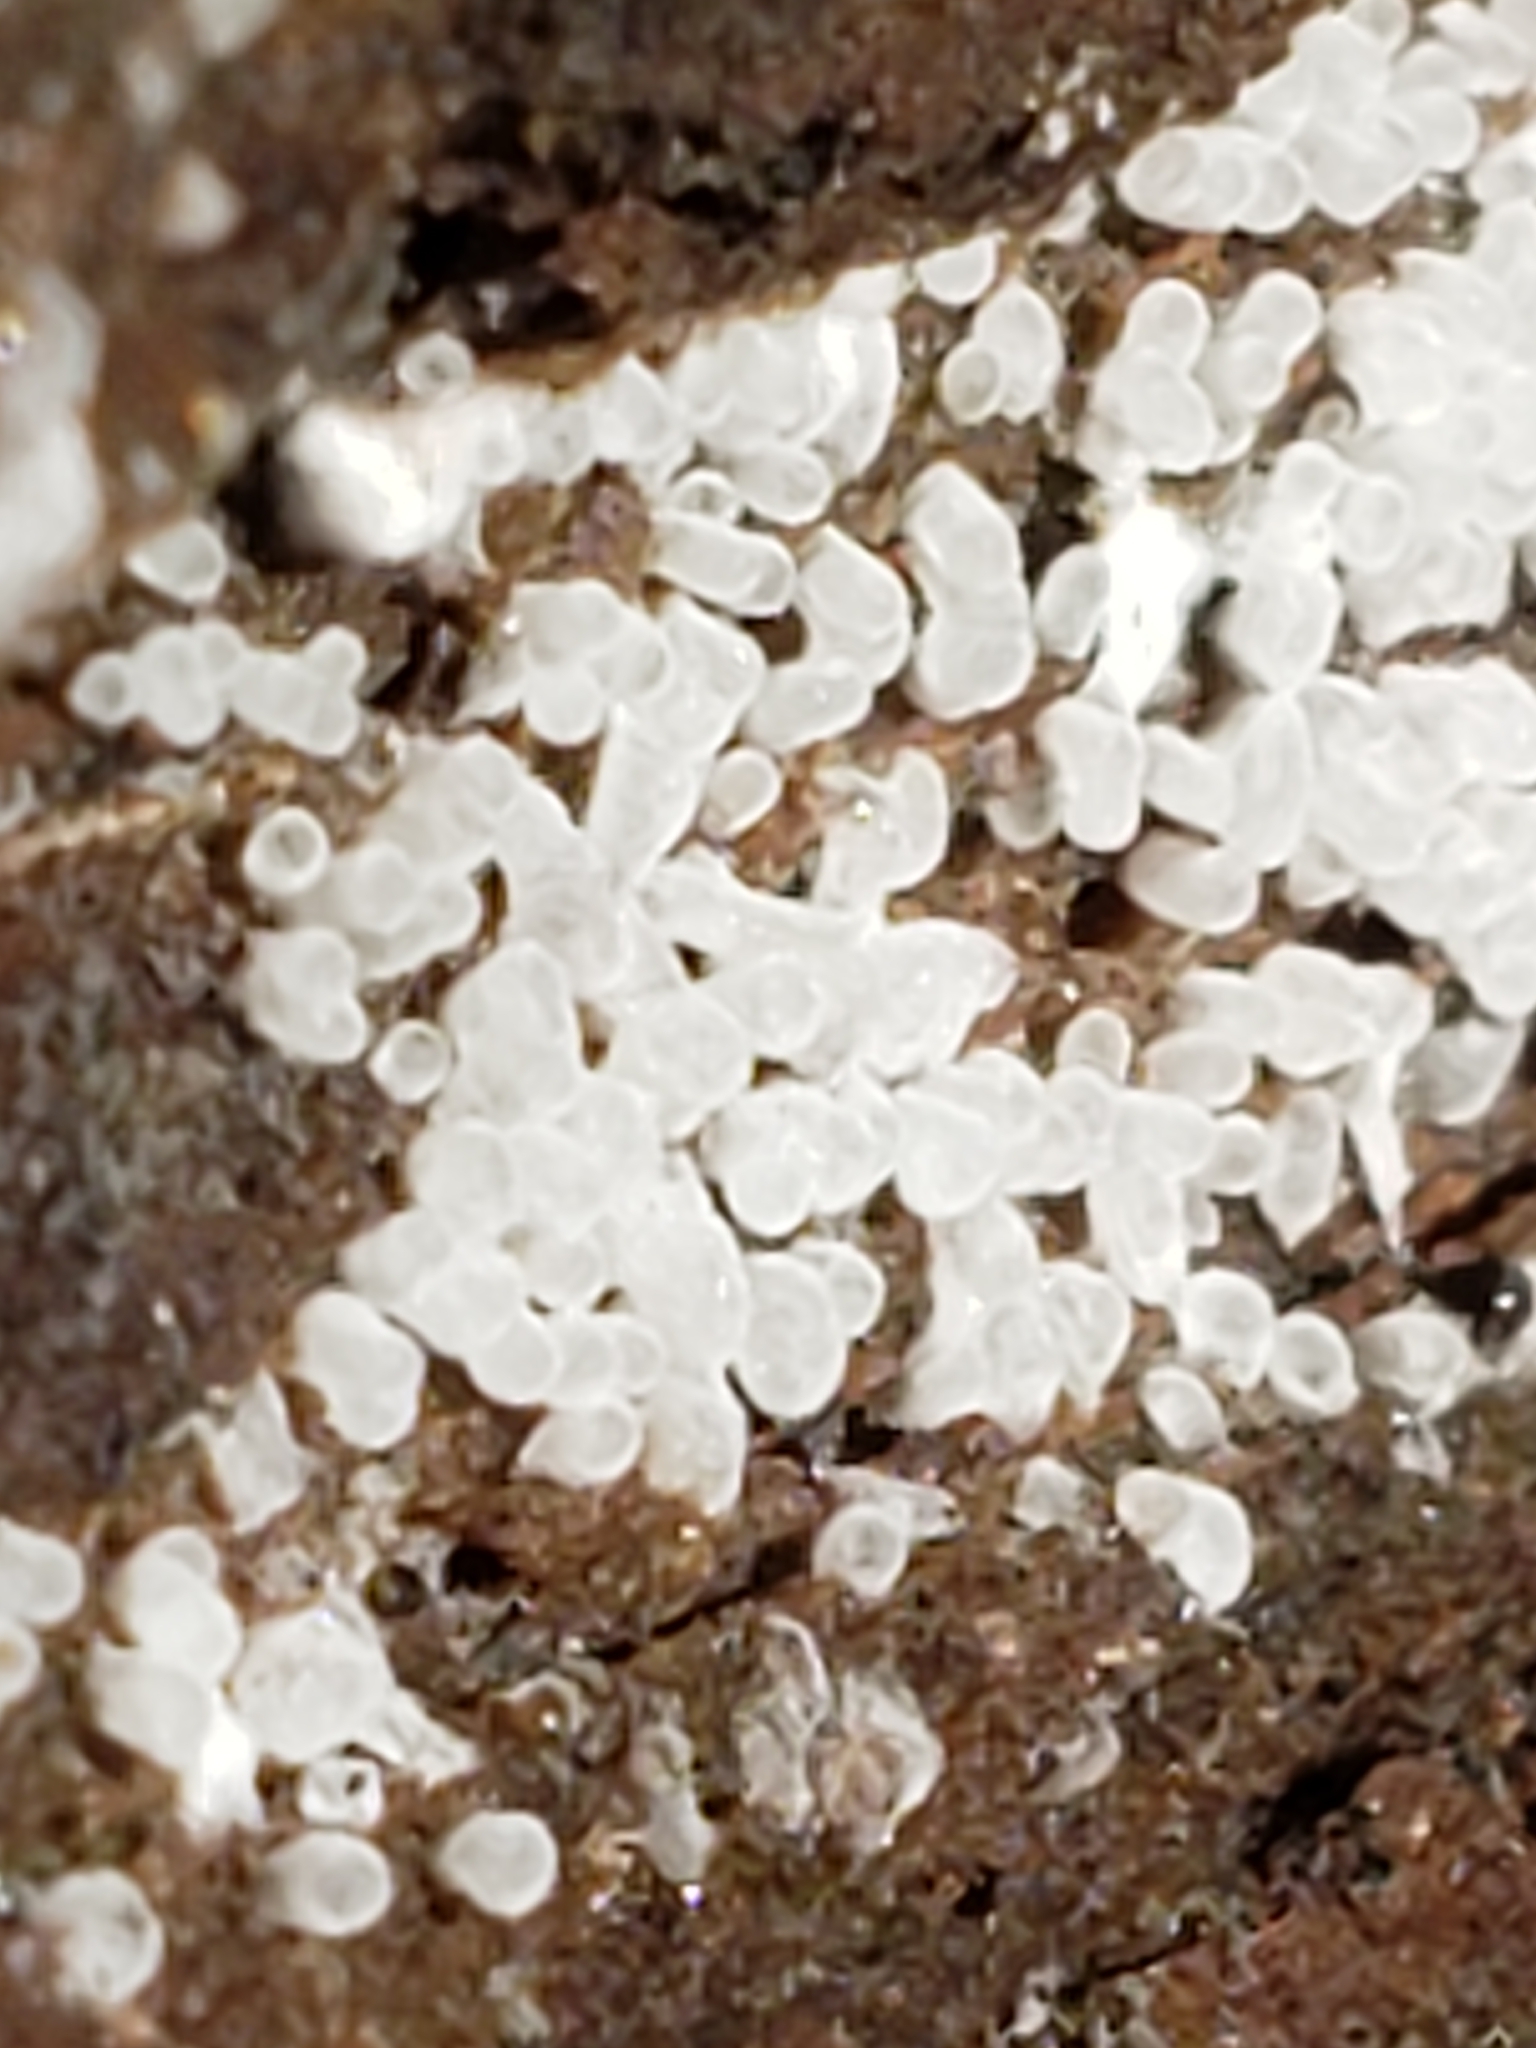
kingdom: Protozoa
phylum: Mycetozoa
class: Protosteliomycetes
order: Ceratiomyxales
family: Ceratiomyxaceae
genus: Ceratiomyxa
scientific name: Ceratiomyxa fruticulosa
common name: Honeycomb coral slime mold
